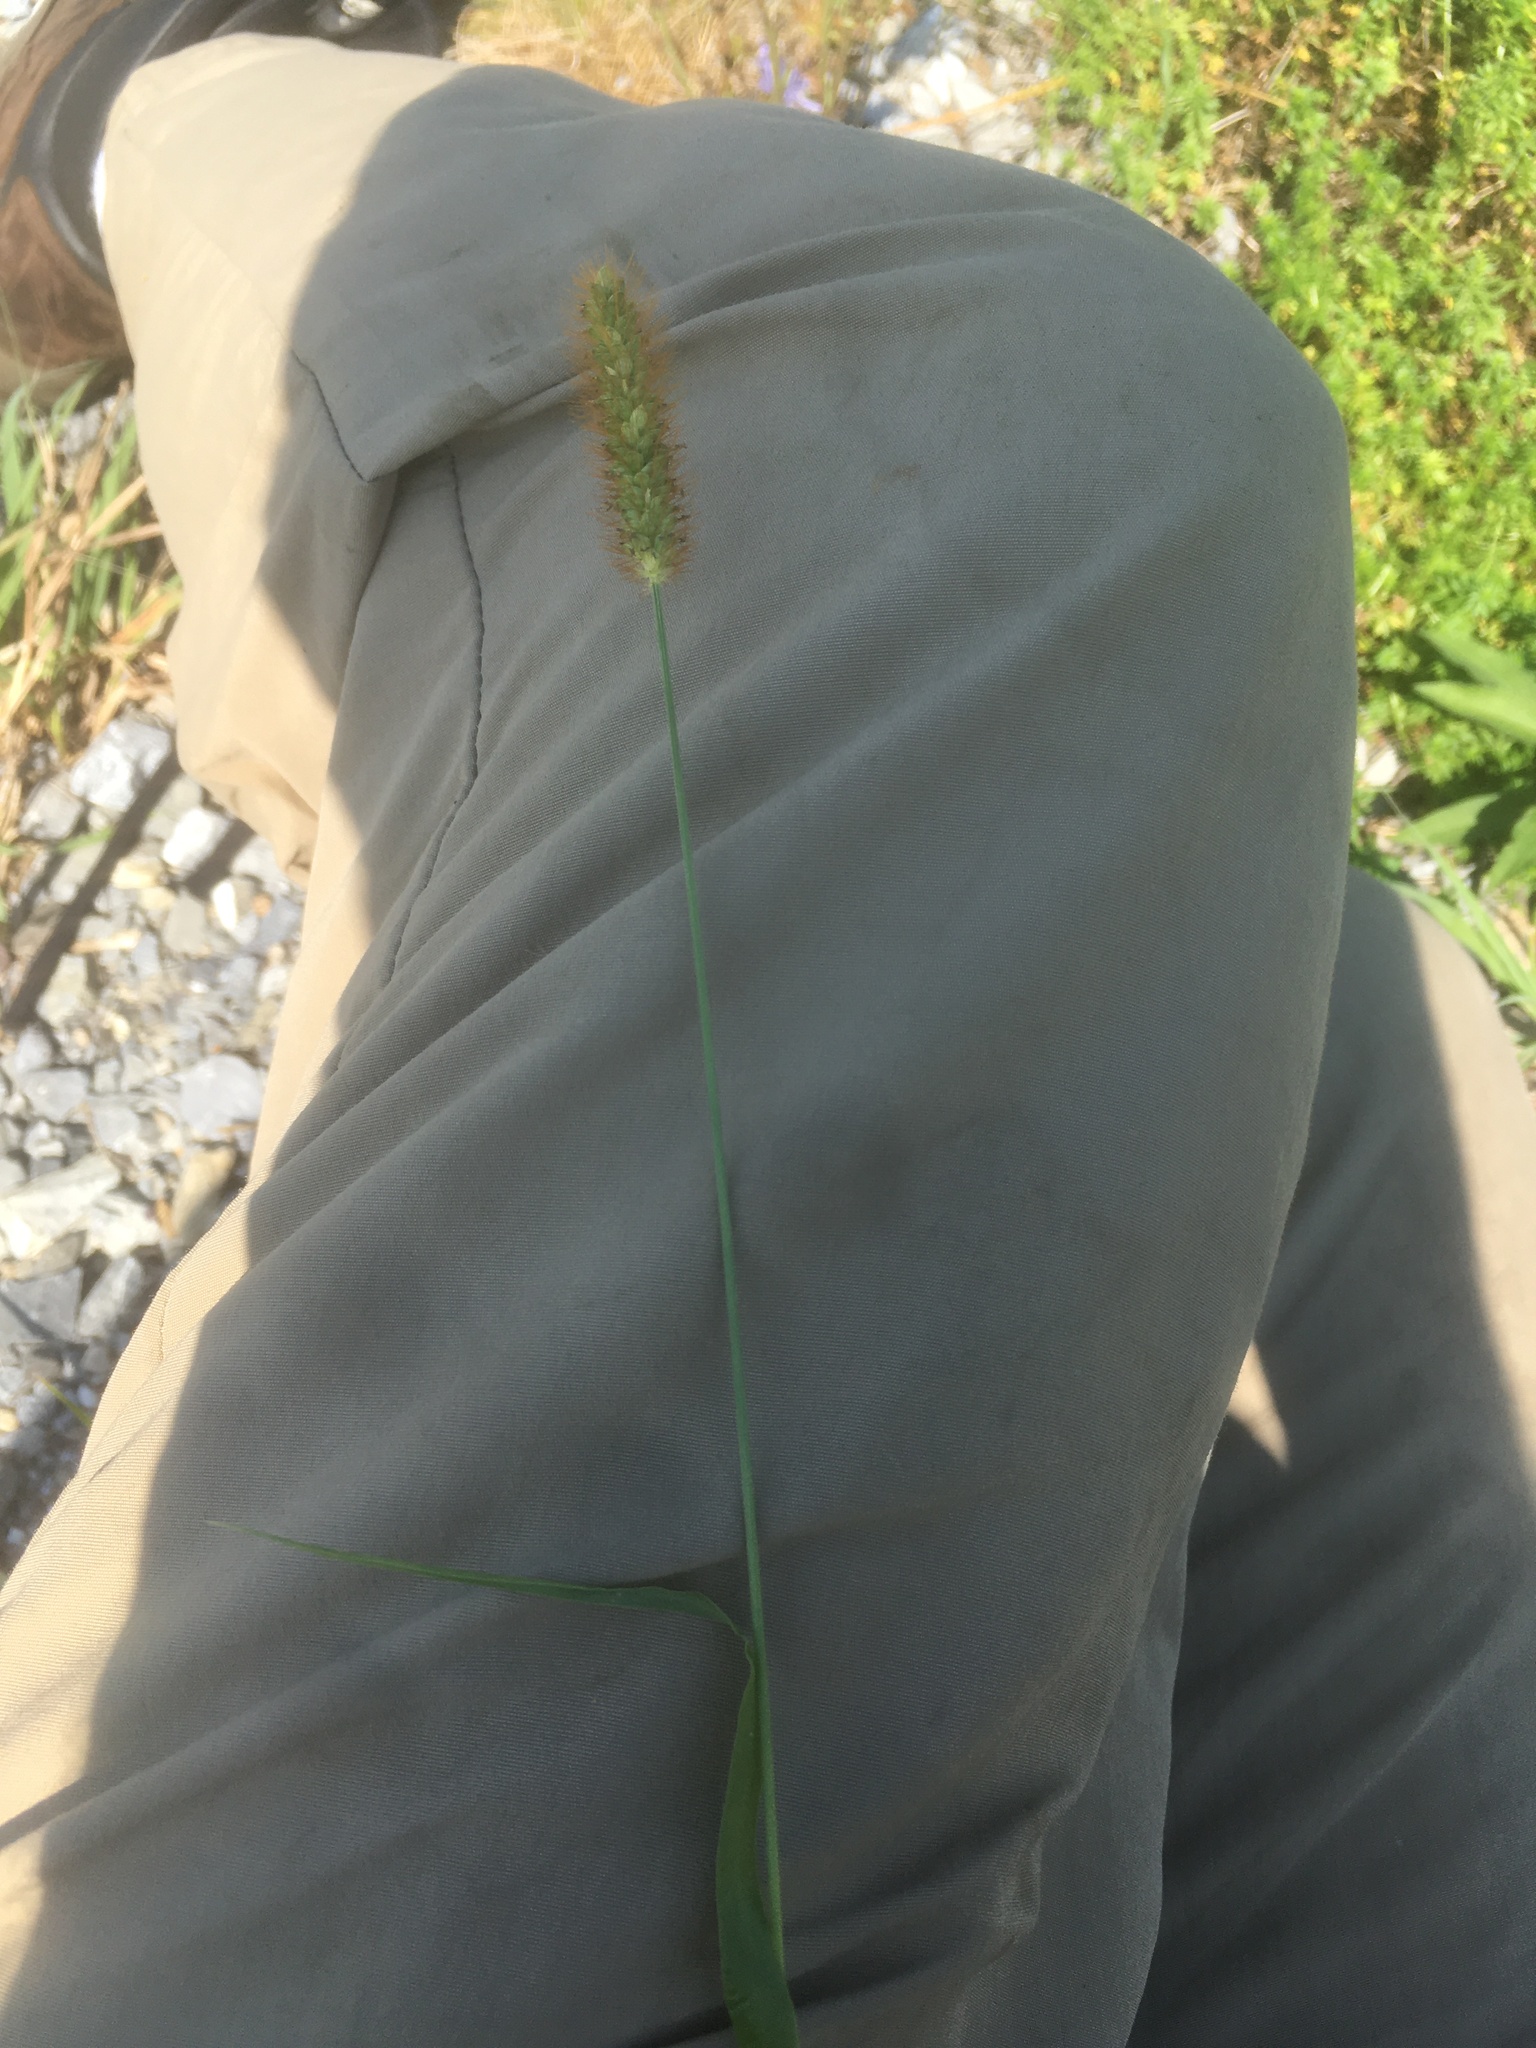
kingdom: Plantae
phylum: Tracheophyta
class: Liliopsida
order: Poales
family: Poaceae
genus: Setaria
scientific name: Setaria pumila
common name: Yellow bristle-grass
